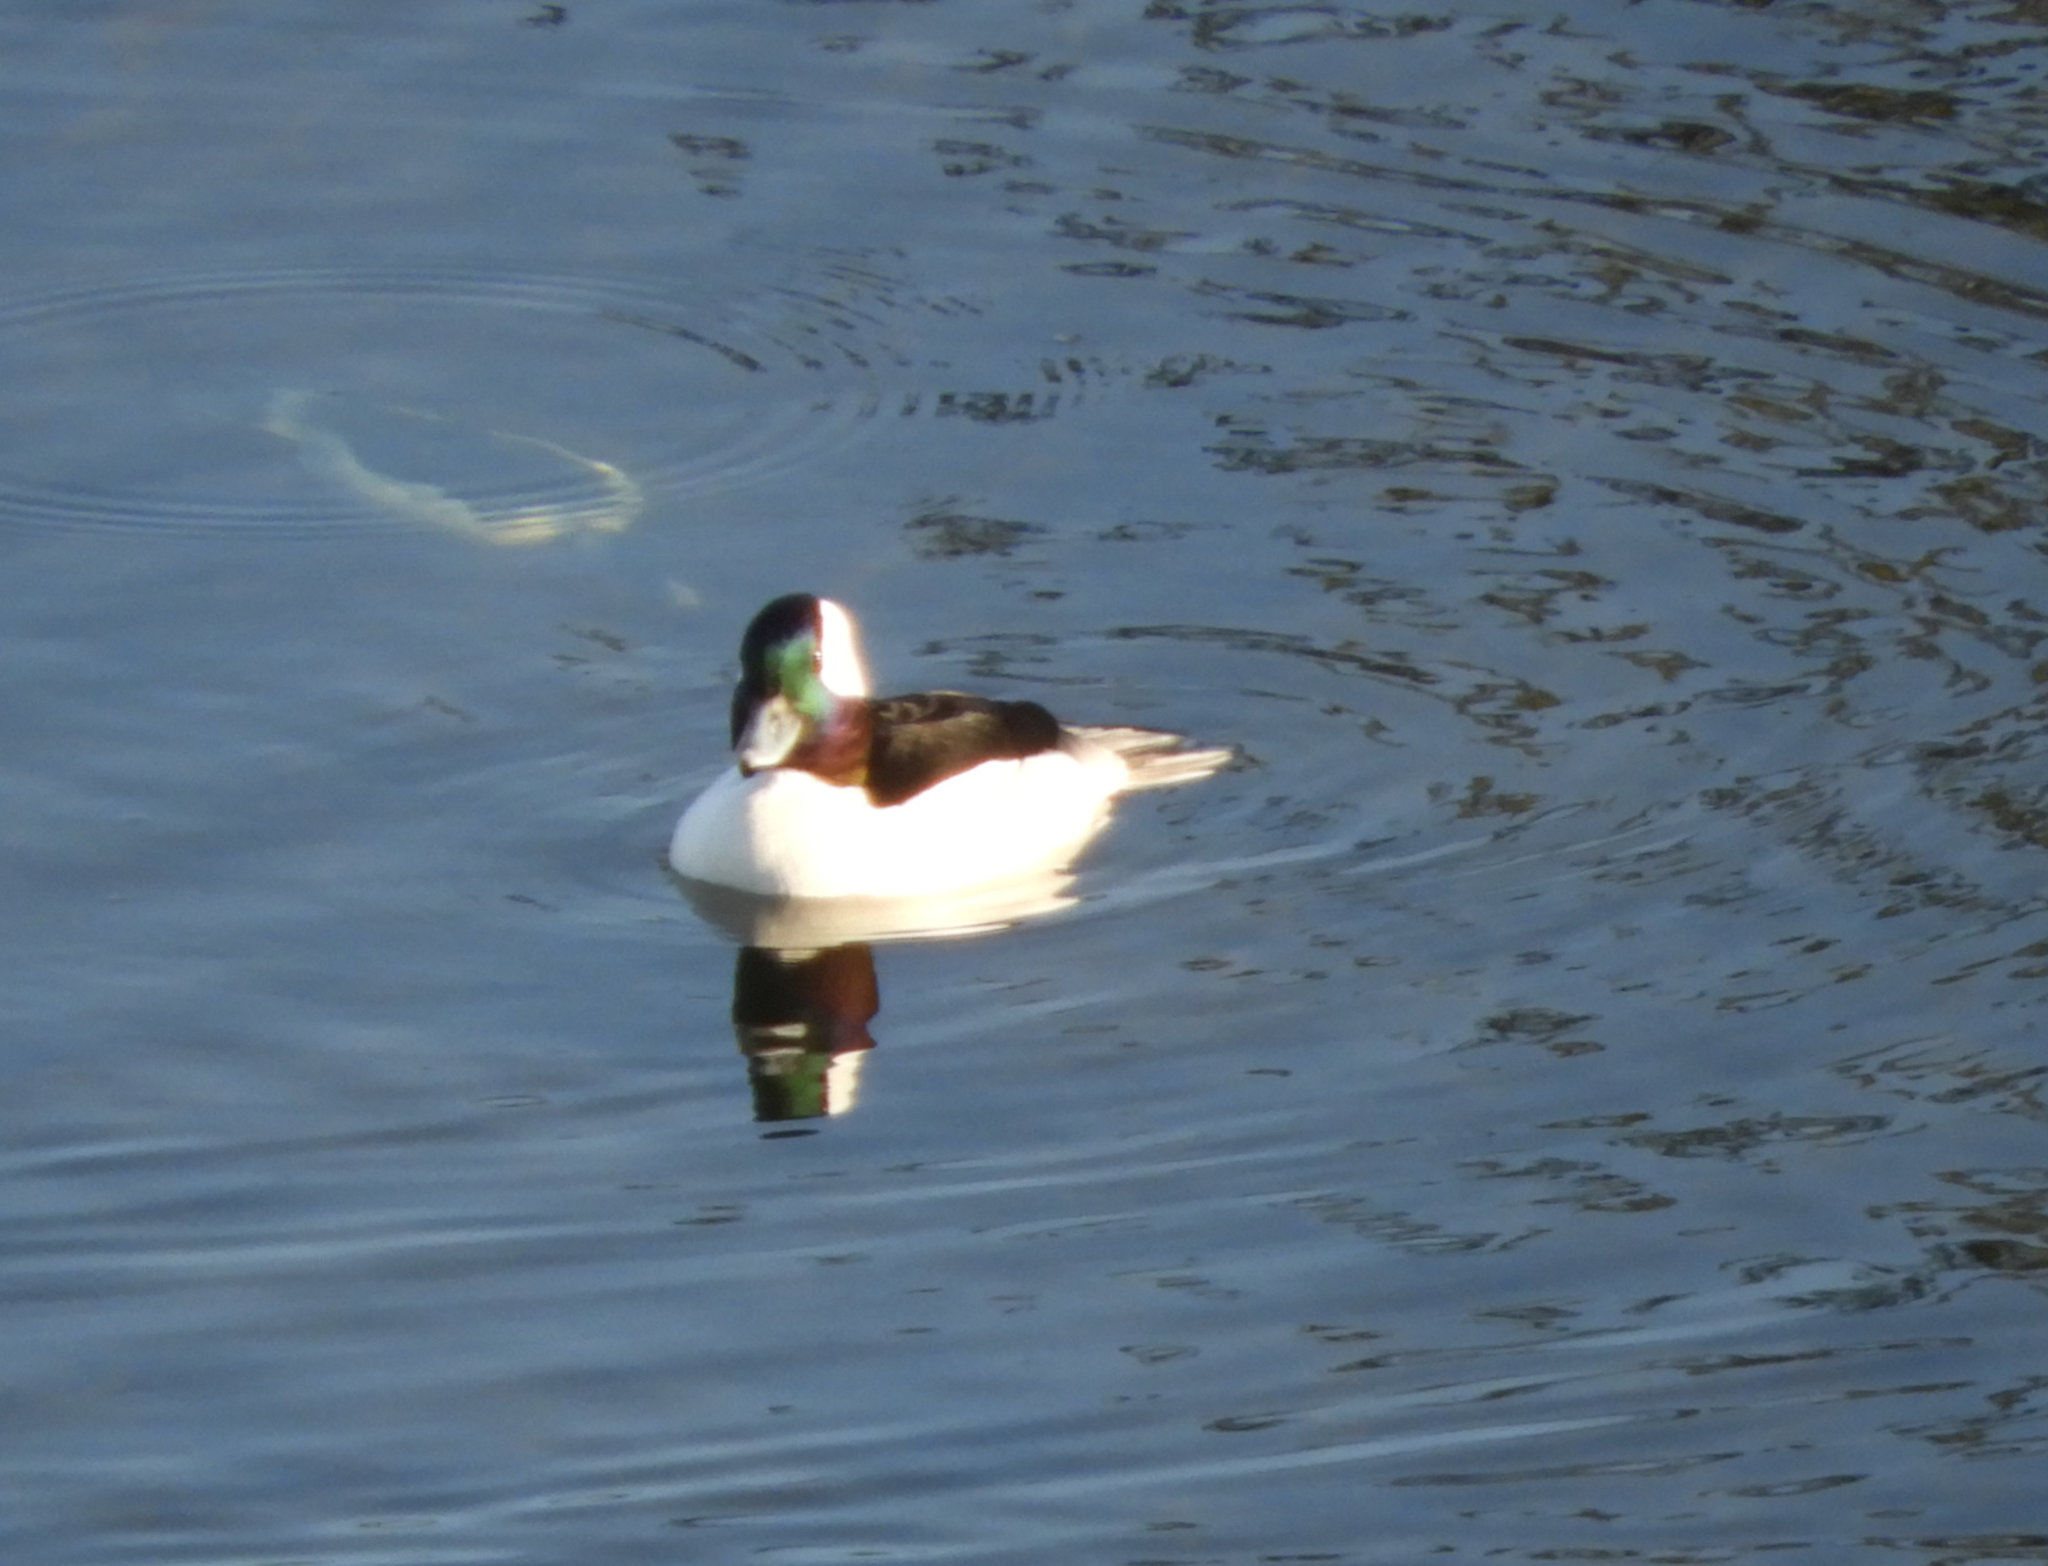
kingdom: Animalia
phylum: Chordata
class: Aves
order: Anseriformes
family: Anatidae
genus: Bucephala
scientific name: Bucephala albeola
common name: Bufflehead
